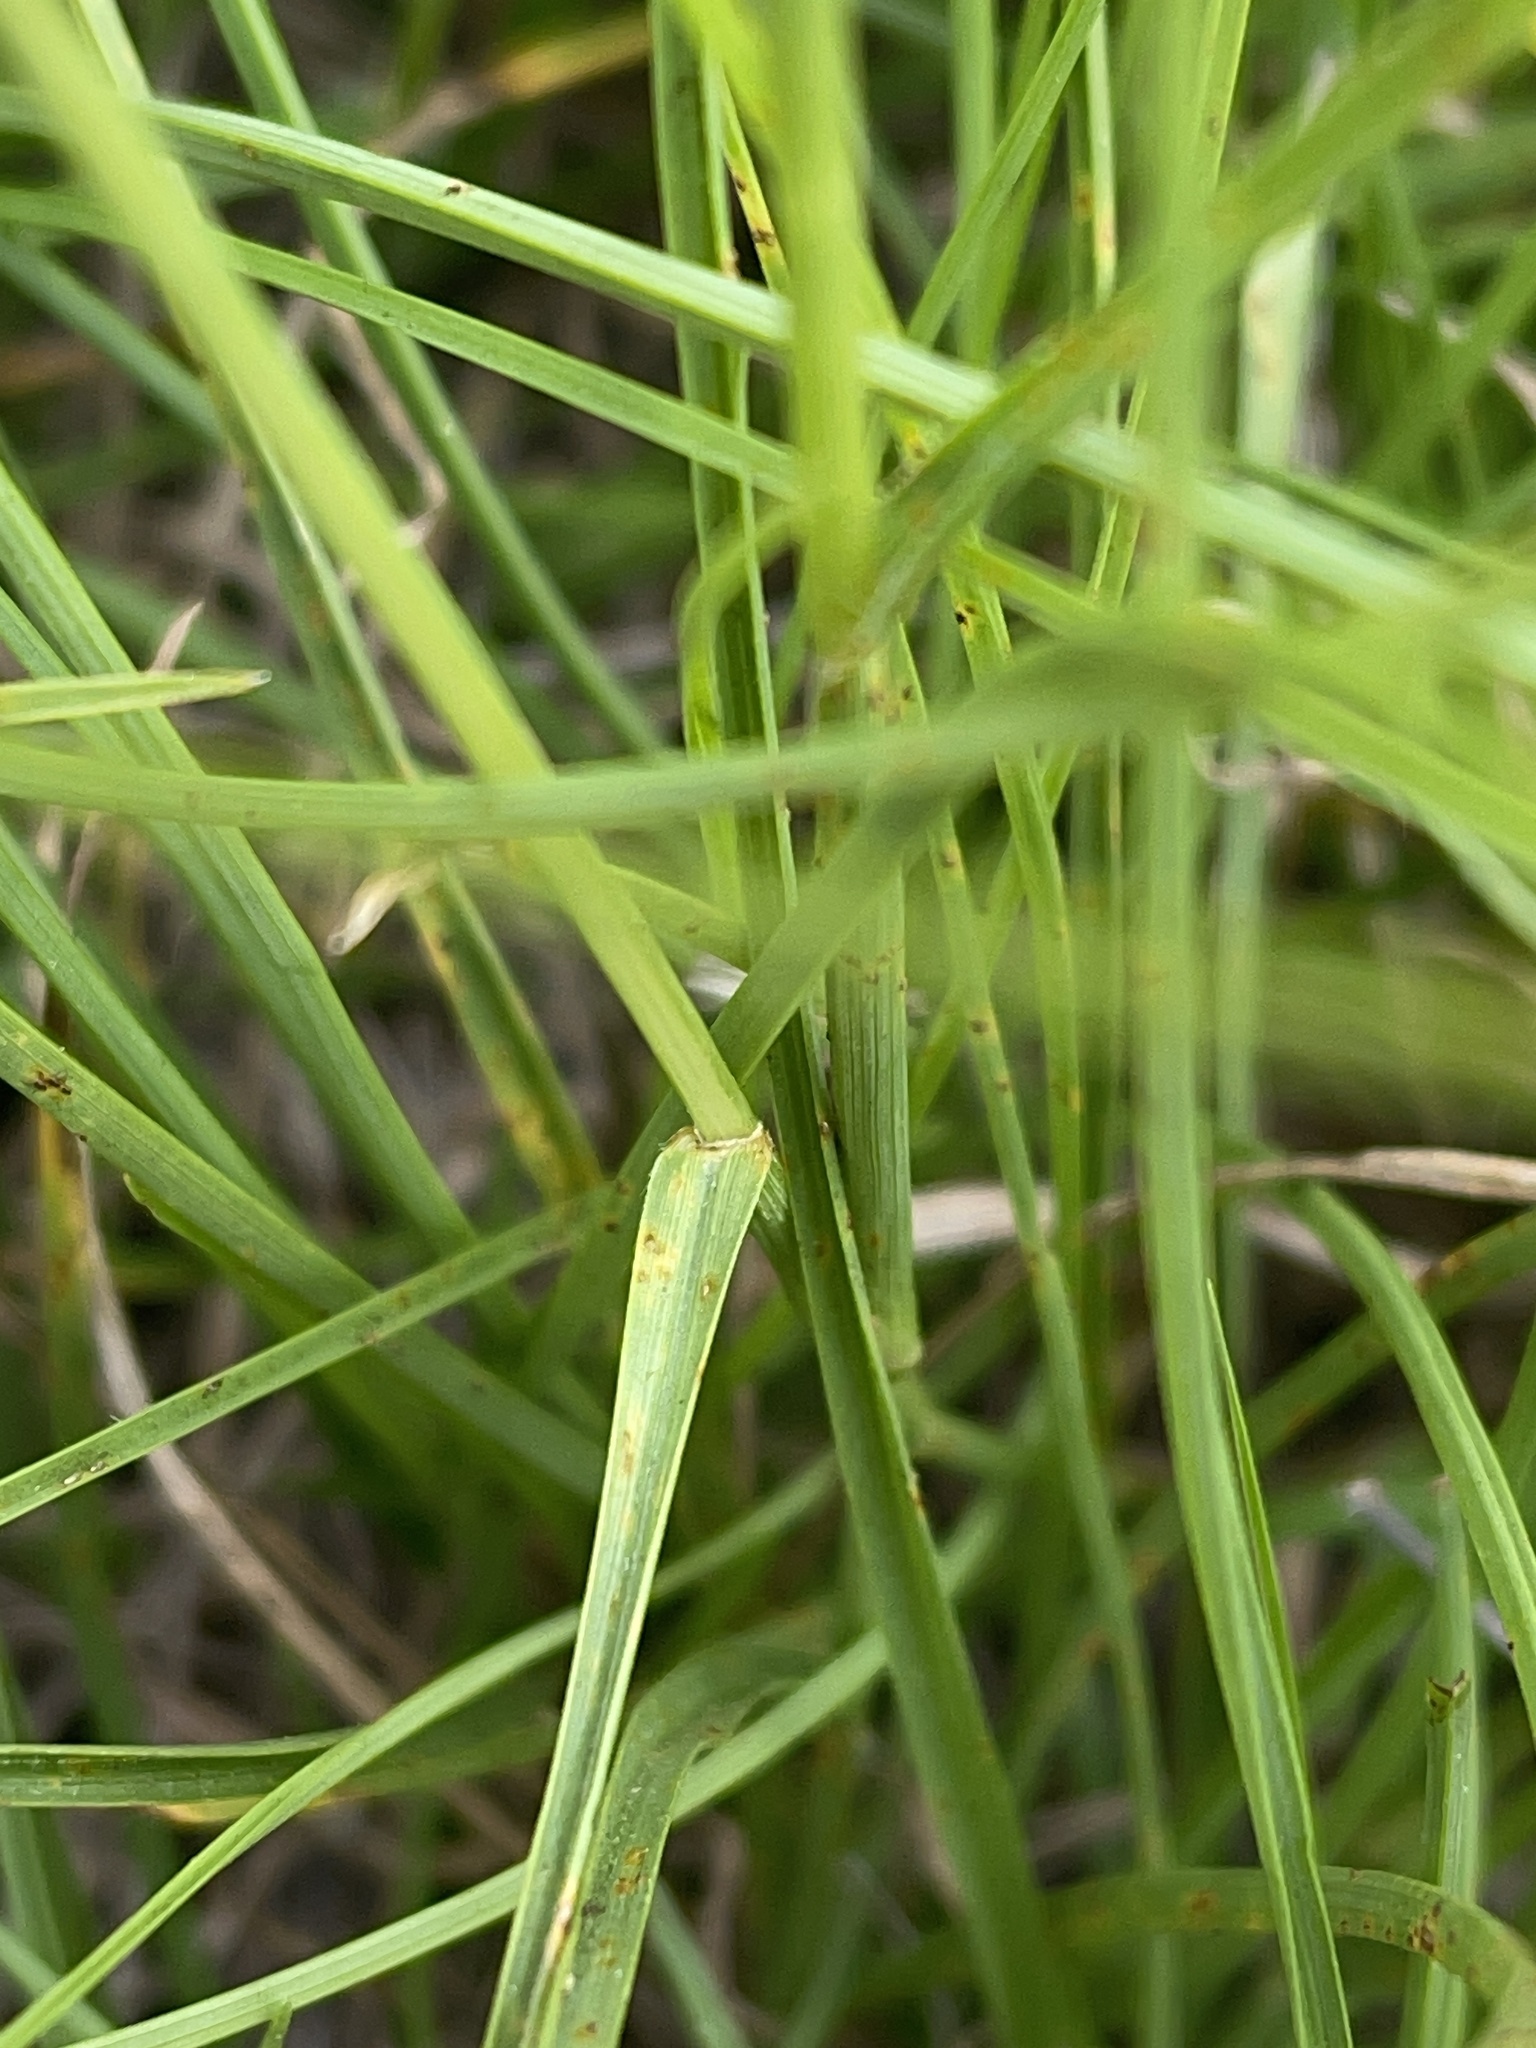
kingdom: Plantae
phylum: Tracheophyta
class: Liliopsida
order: Poales
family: Poaceae
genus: Hemarthria
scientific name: Hemarthria uncinata
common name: Matgrass
